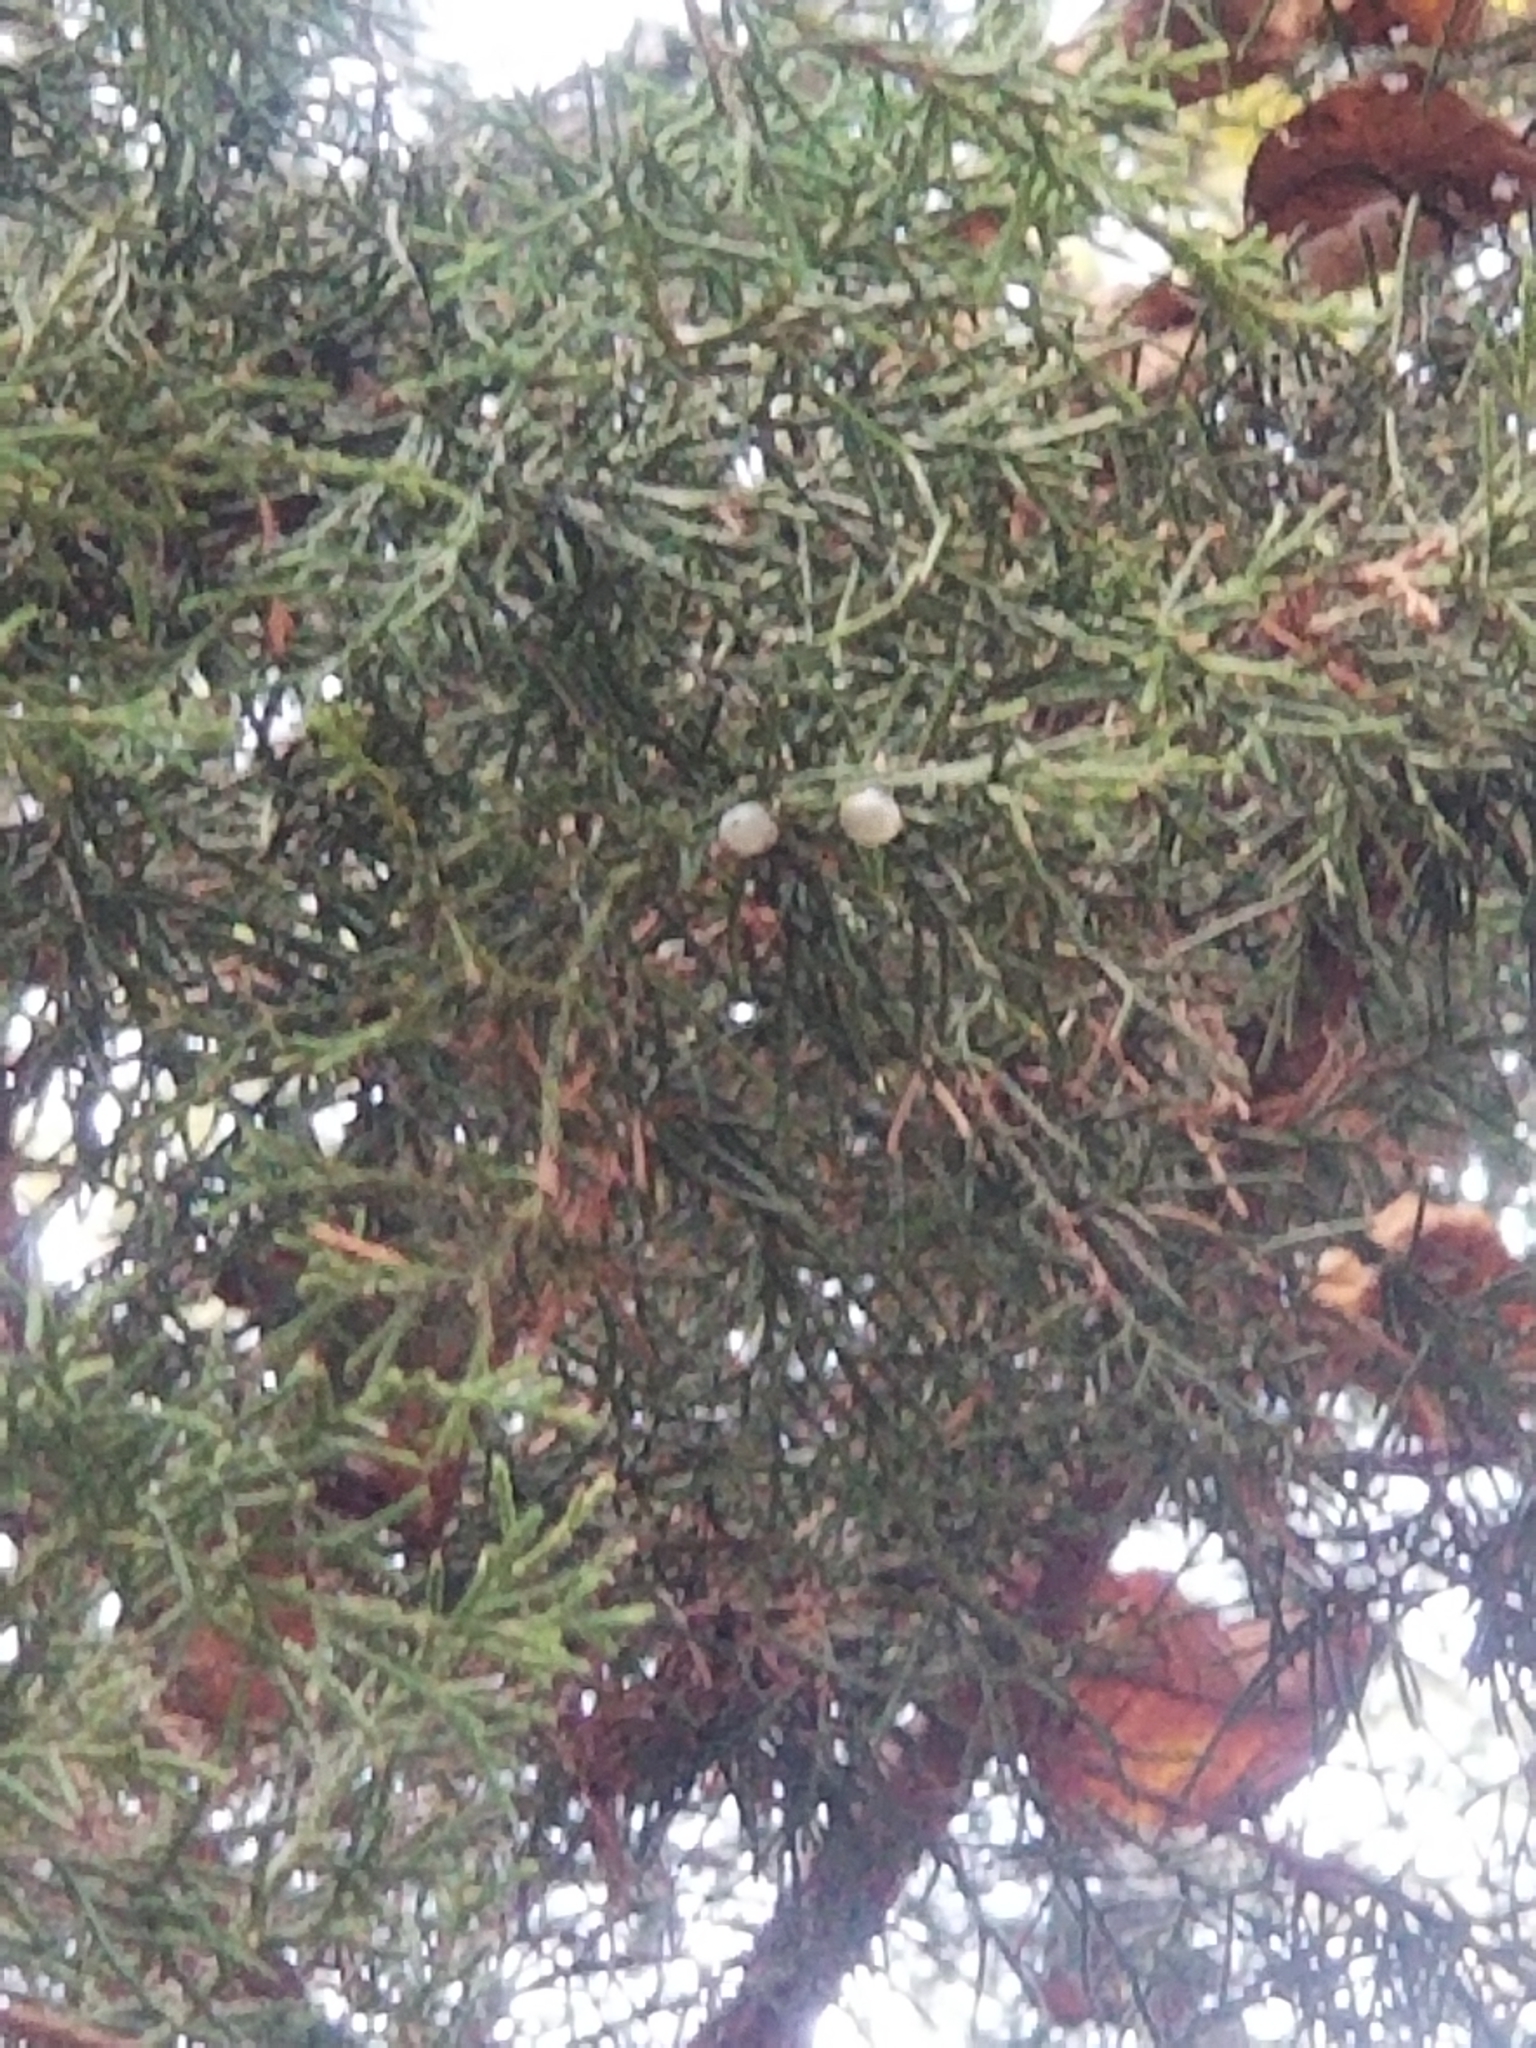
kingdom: Plantae
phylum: Tracheophyta
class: Pinopsida
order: Pinales
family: Cupressaceae
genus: Juniperus
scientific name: Juniperus virginiana
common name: Red juniper
